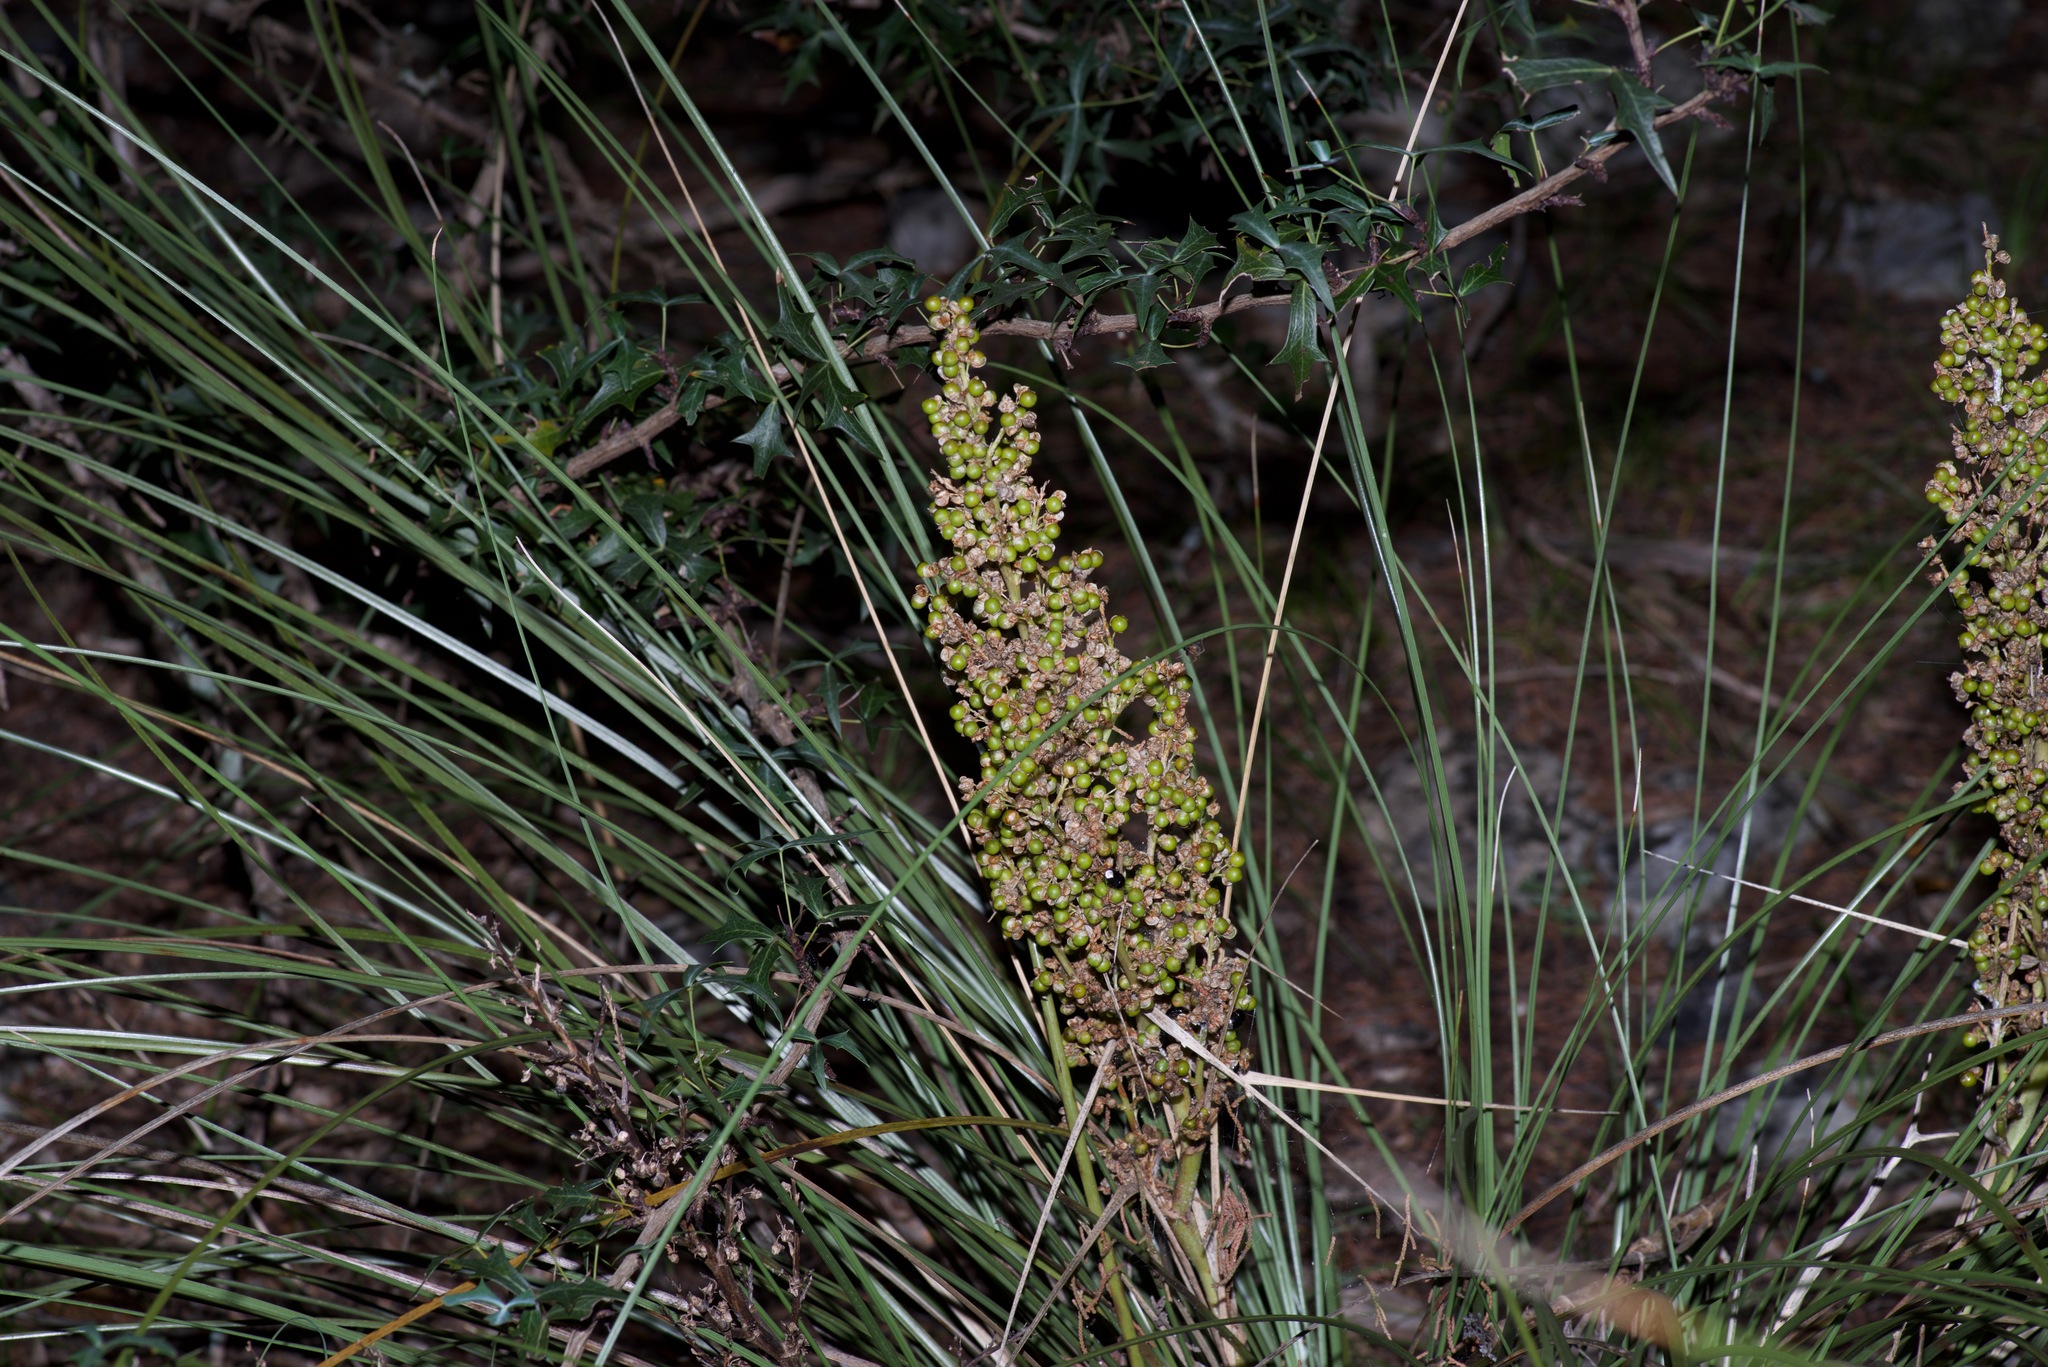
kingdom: Plantae
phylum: Tracheophyta
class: Liliopsida
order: Asparagales
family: Asparagaceae
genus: Nolina
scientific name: Nolina texana
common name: Texas sacahuiste
